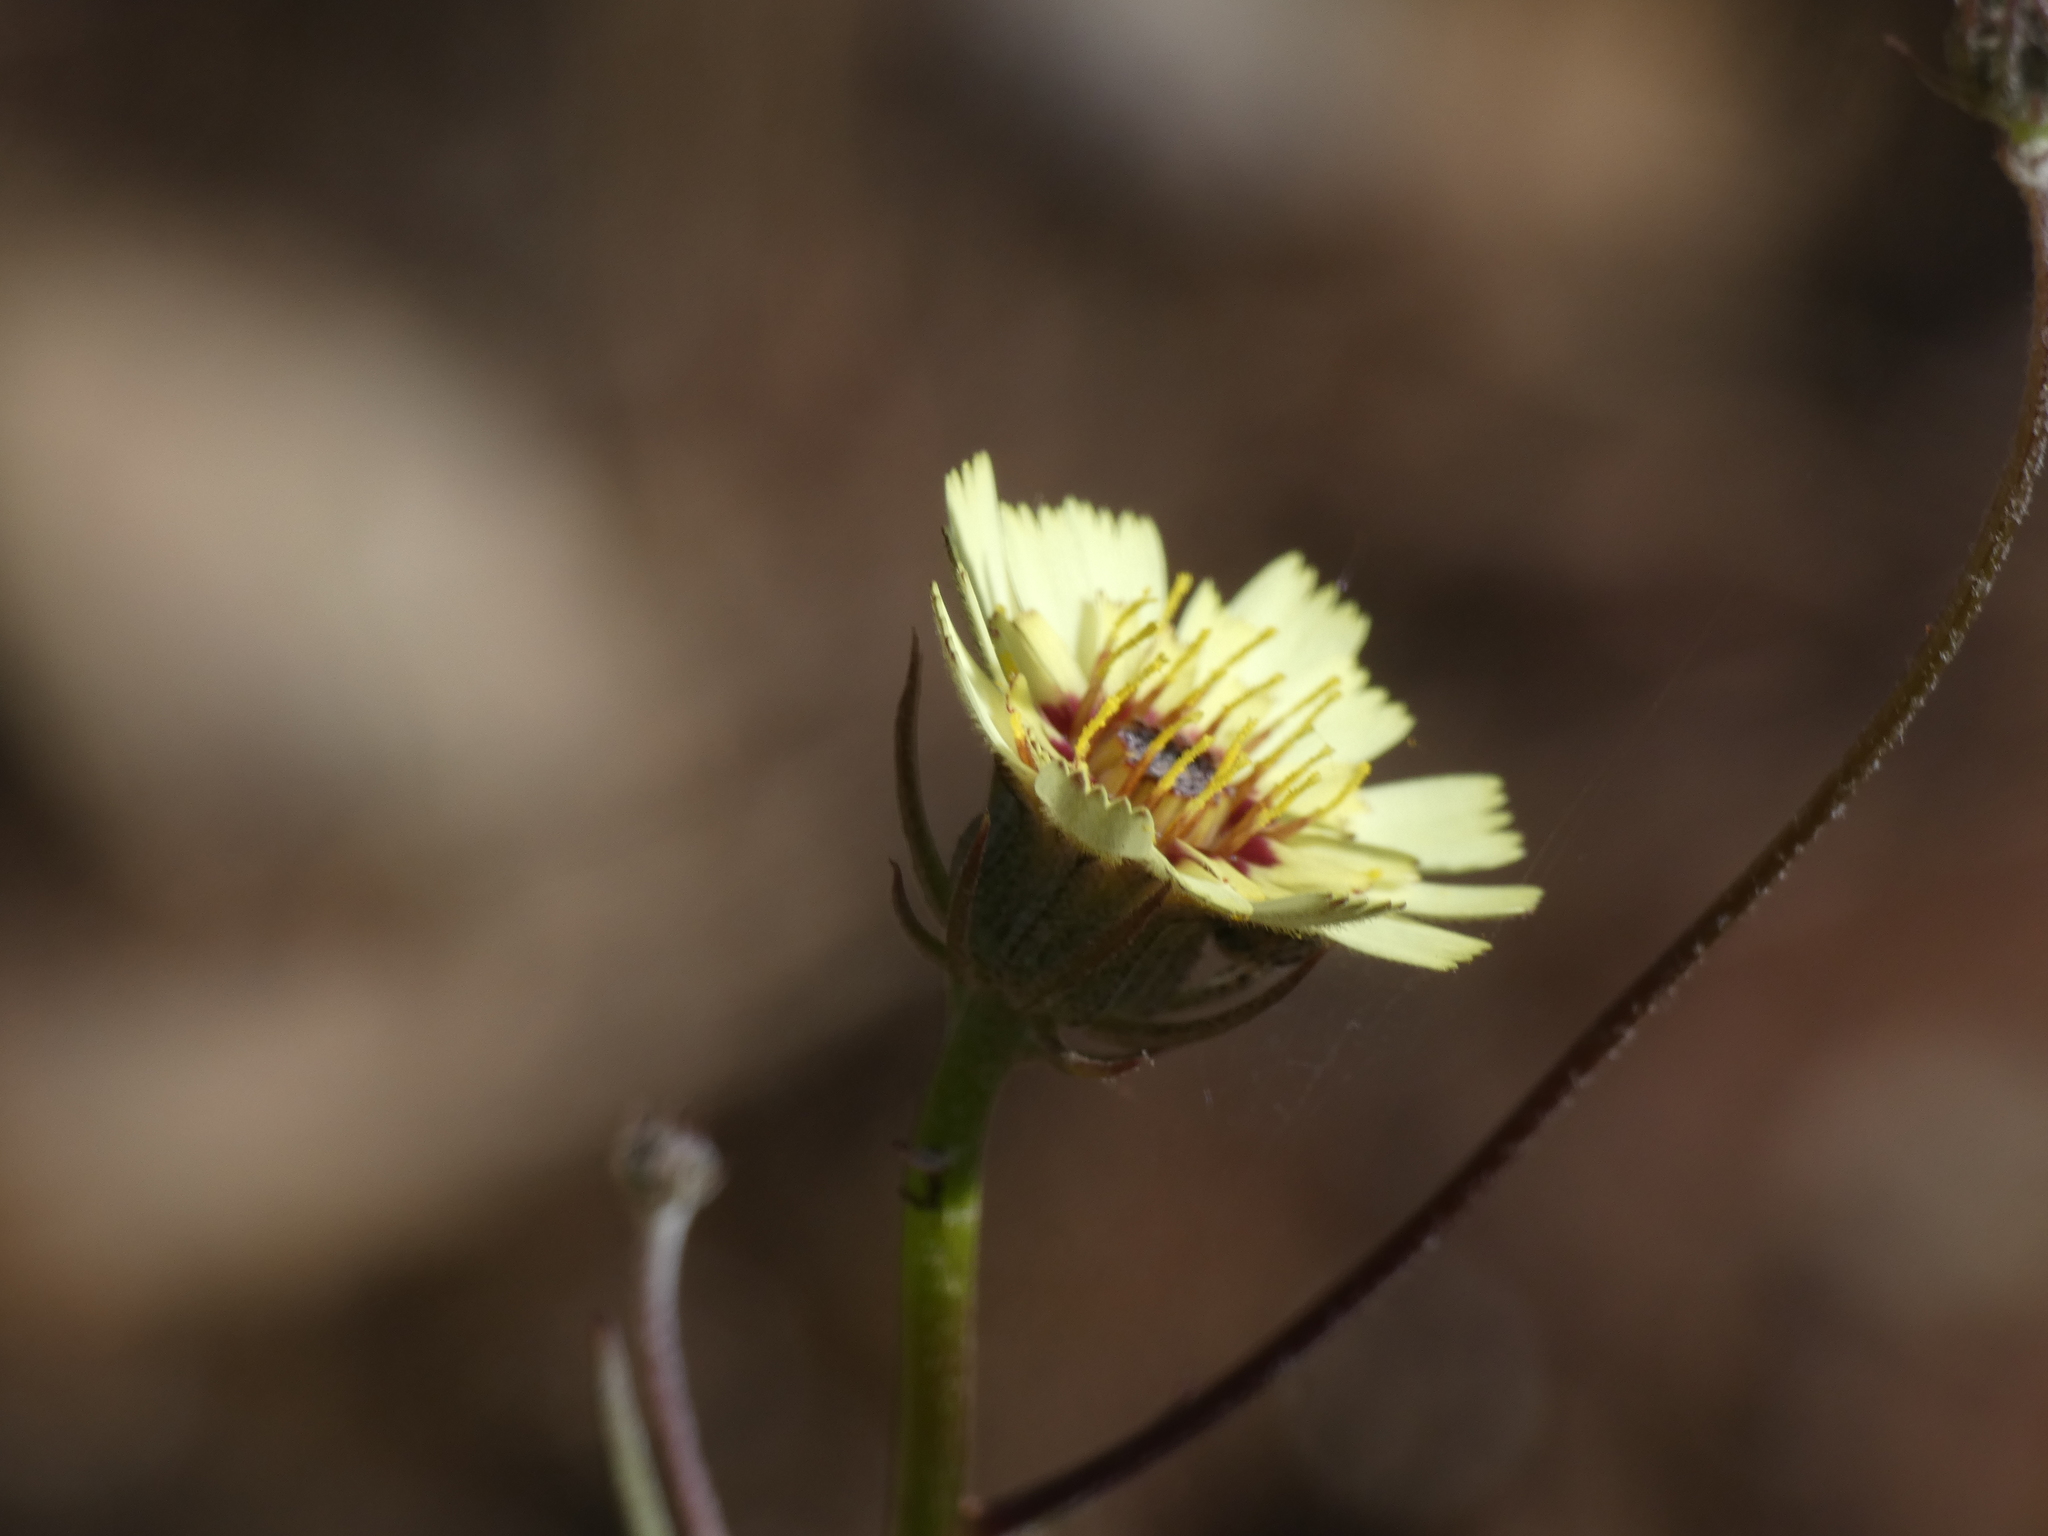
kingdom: Plantae
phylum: Tracheophyta
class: Magnoliopsida
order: Asterales
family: Asteraceae
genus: Tolpis
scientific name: Tolpis barbata
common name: Yellow hawkweed
